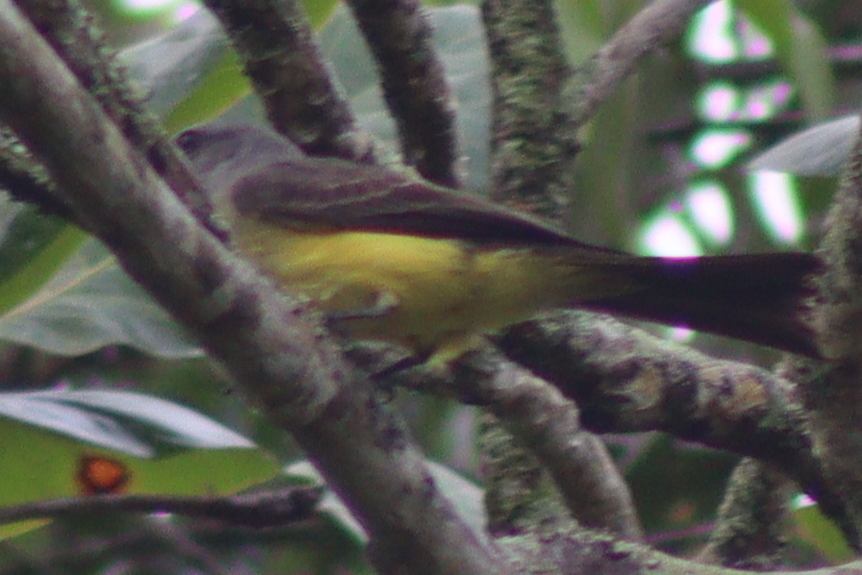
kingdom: Animalia
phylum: Chordata
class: Aves
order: Passeriformes
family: Tyrannidae
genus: Tyrannus
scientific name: Tyrannus melancholicus
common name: Tropical kingbird
